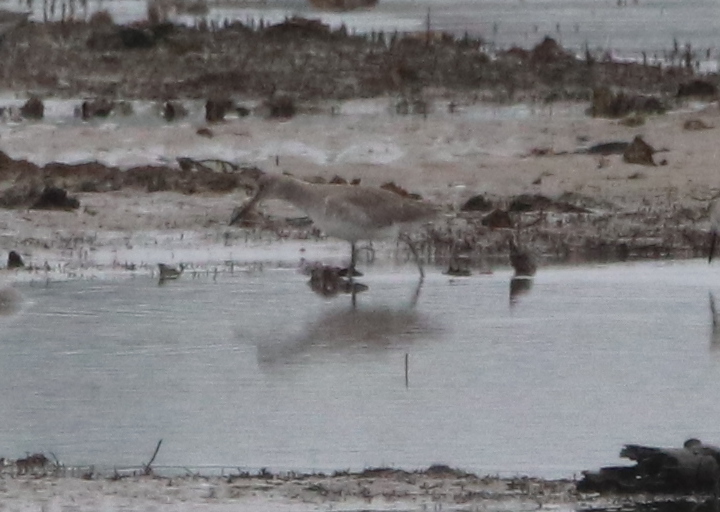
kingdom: Animalia
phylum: Chordata
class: Aves
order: Charadriiformes
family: Scolopacidae
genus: Tringa
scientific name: Tringa semipalmata
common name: Willet
